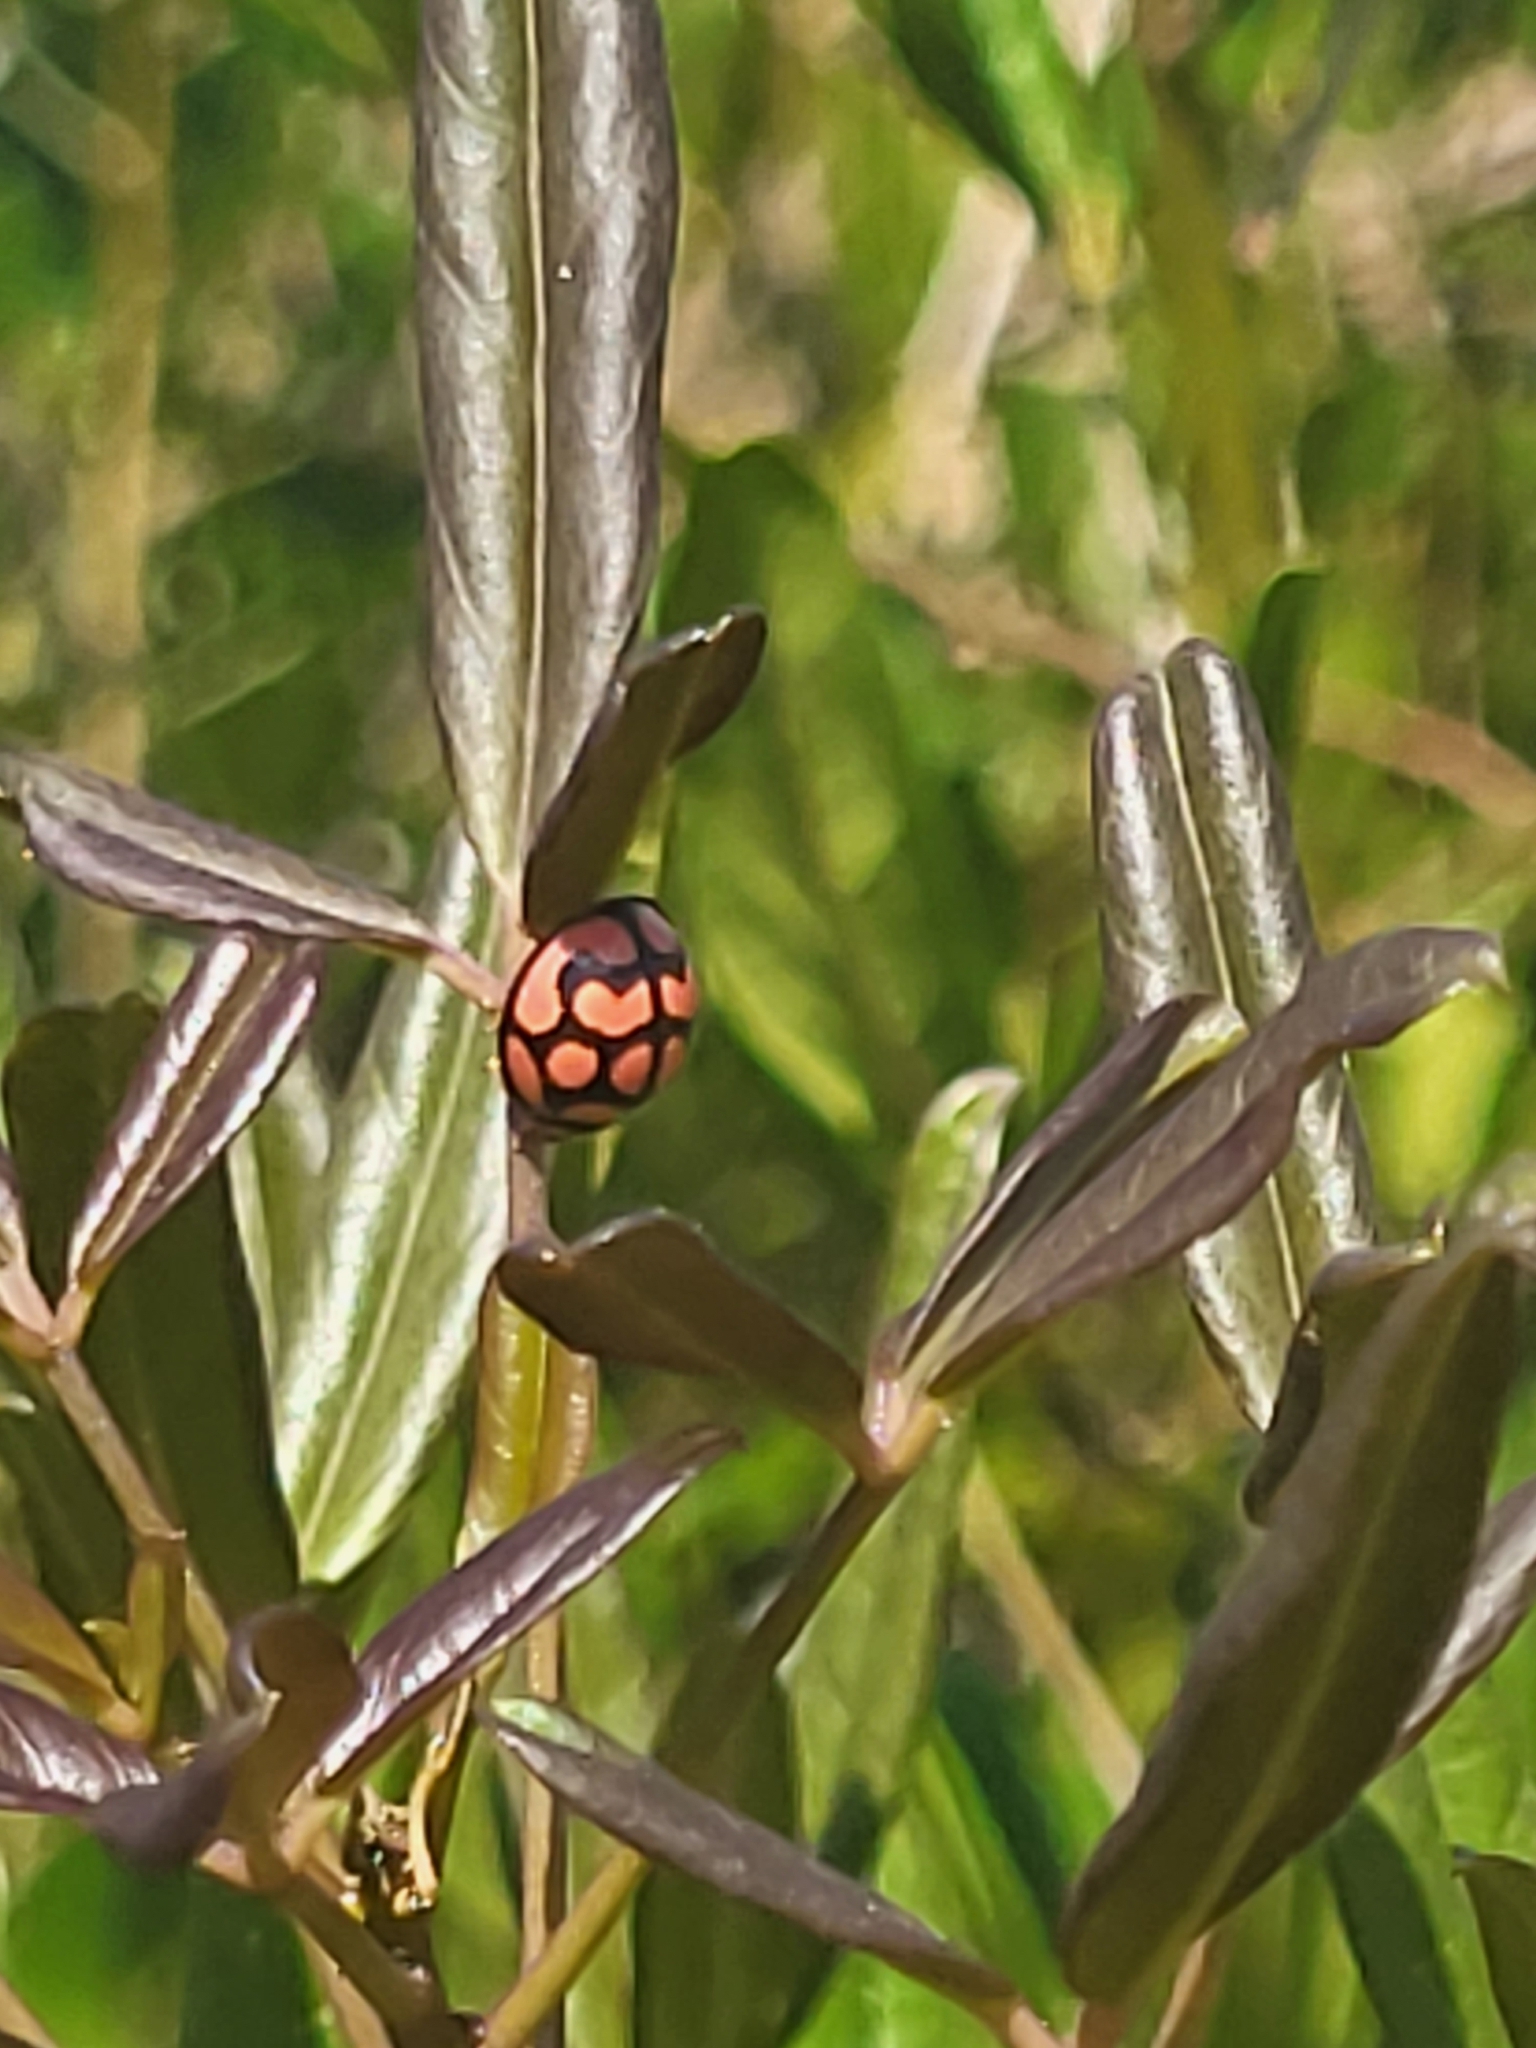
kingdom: Animalia
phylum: Arthropoda
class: Insecta
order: Coleoptera
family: Coccinellidae
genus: Cheilomenes
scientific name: Cheilomenes lunata
